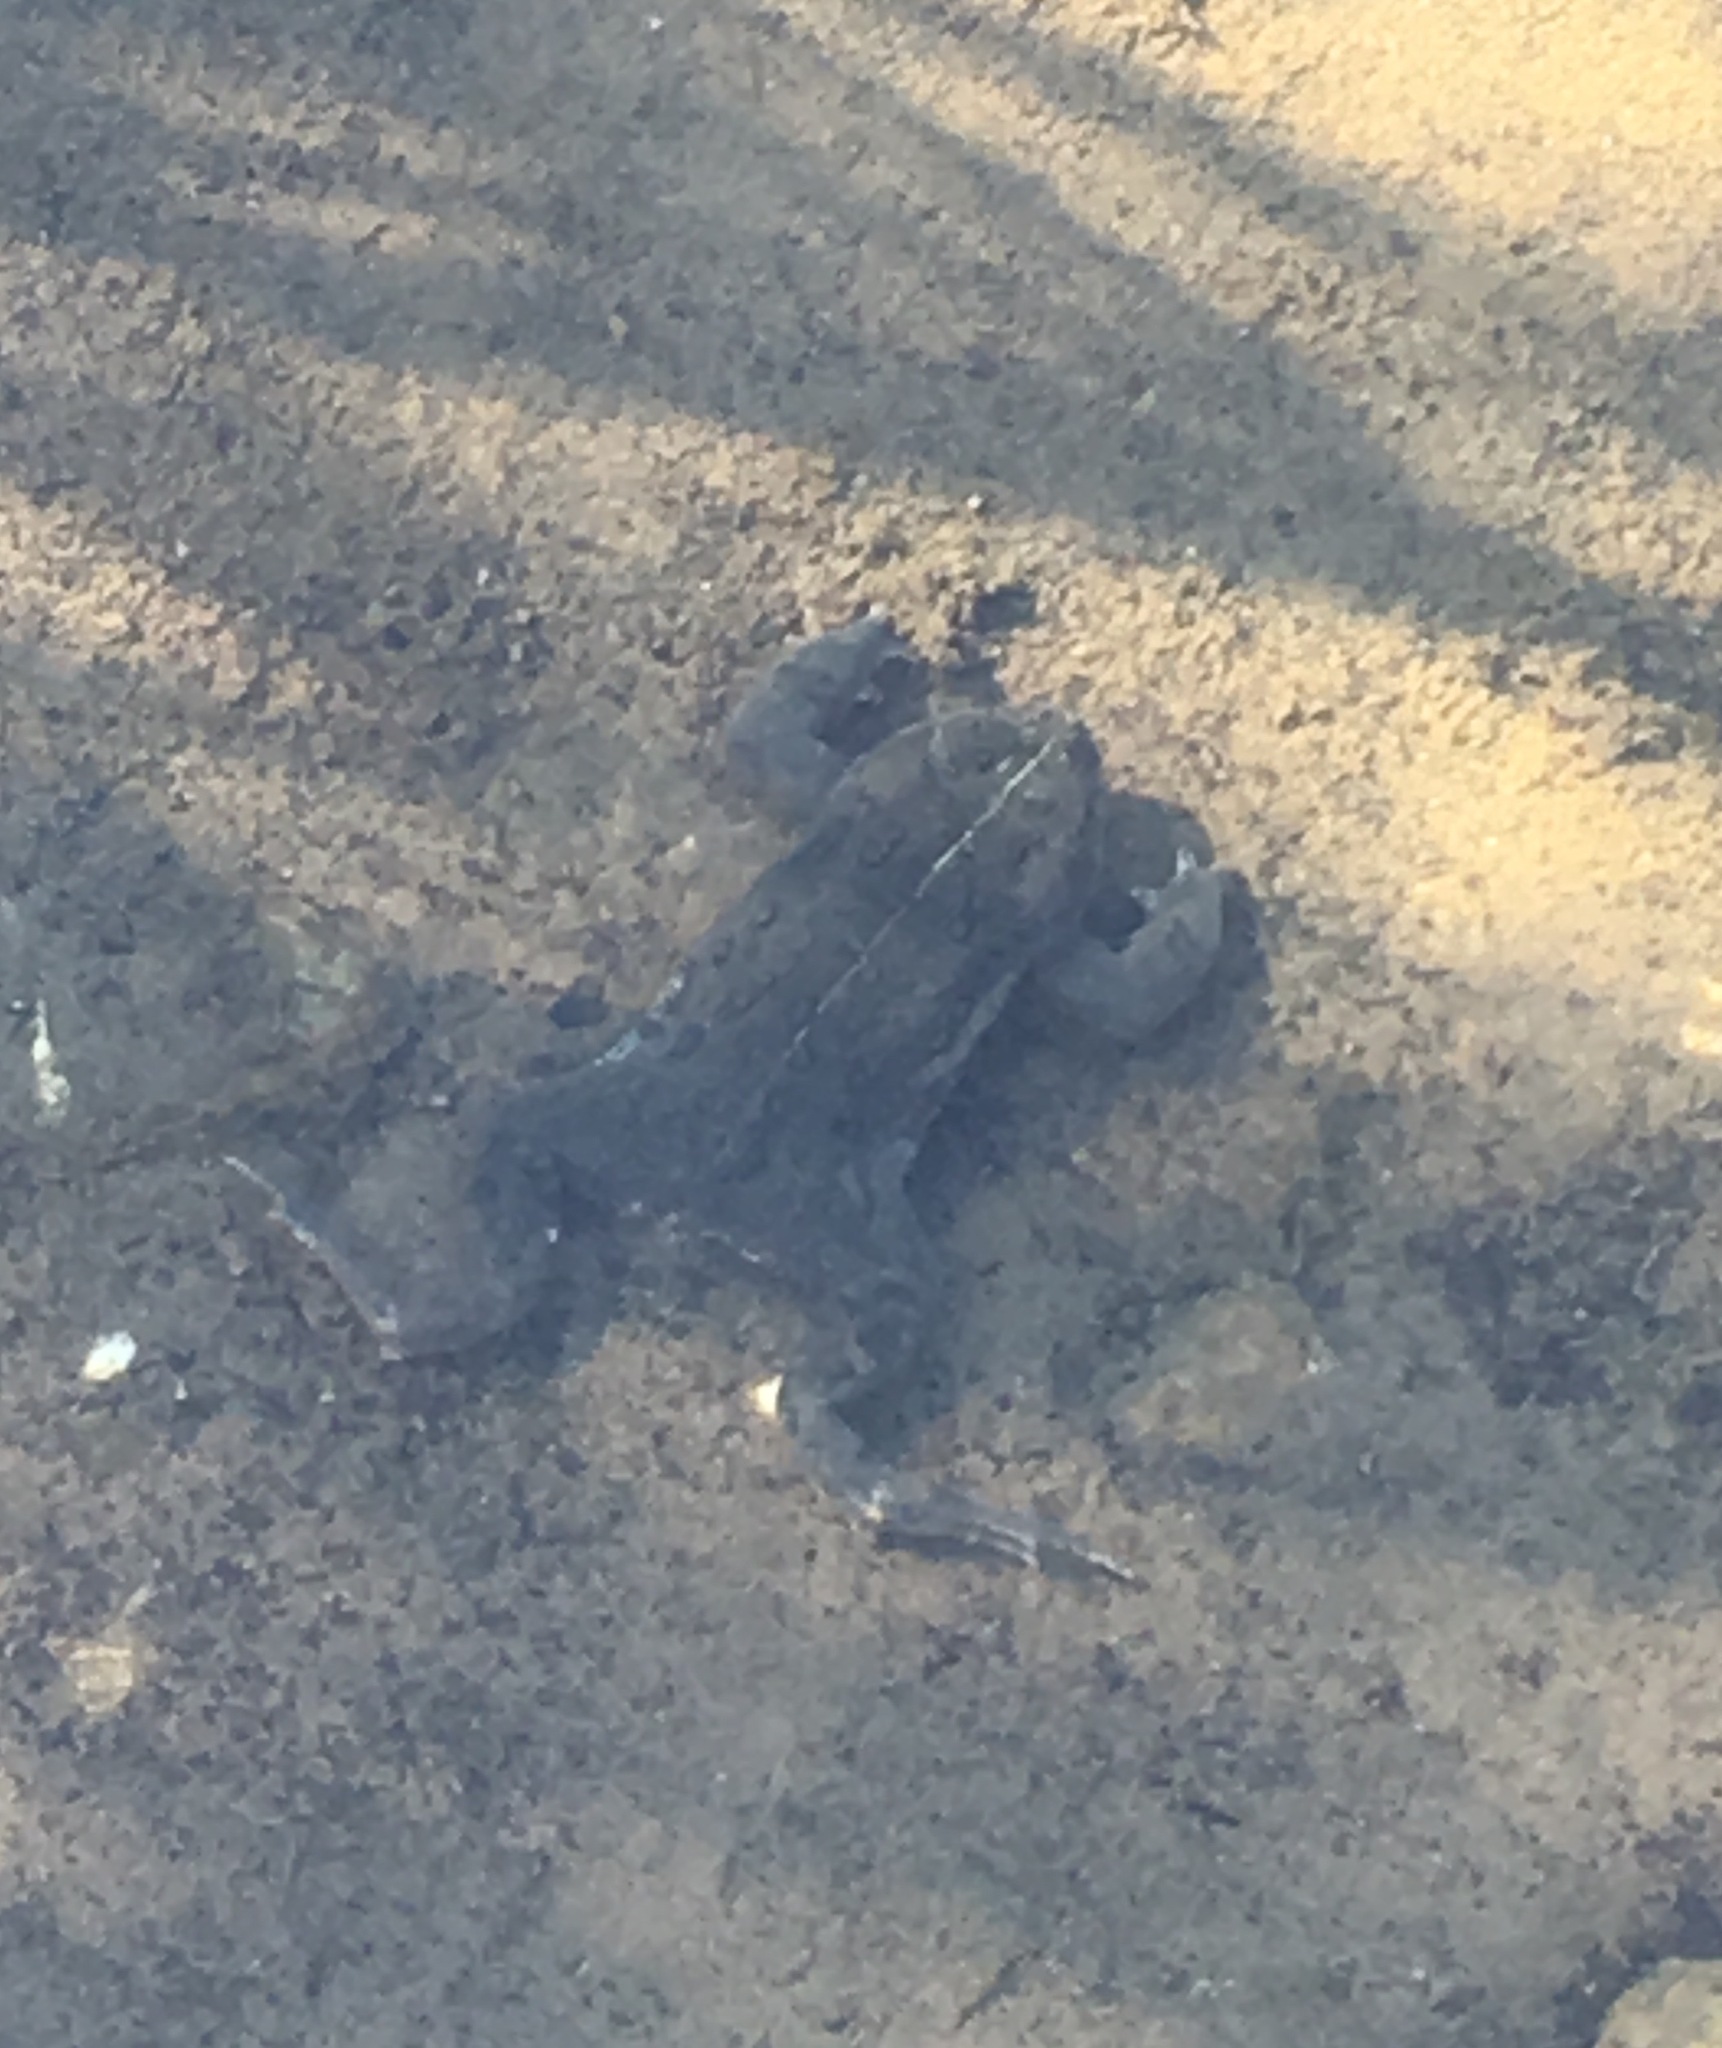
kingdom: Animalia
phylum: Chordata
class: Amphibia
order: Anura
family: Bufonidae
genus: Anaxyrus
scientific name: Anaxyrus boreas
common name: Western toad
